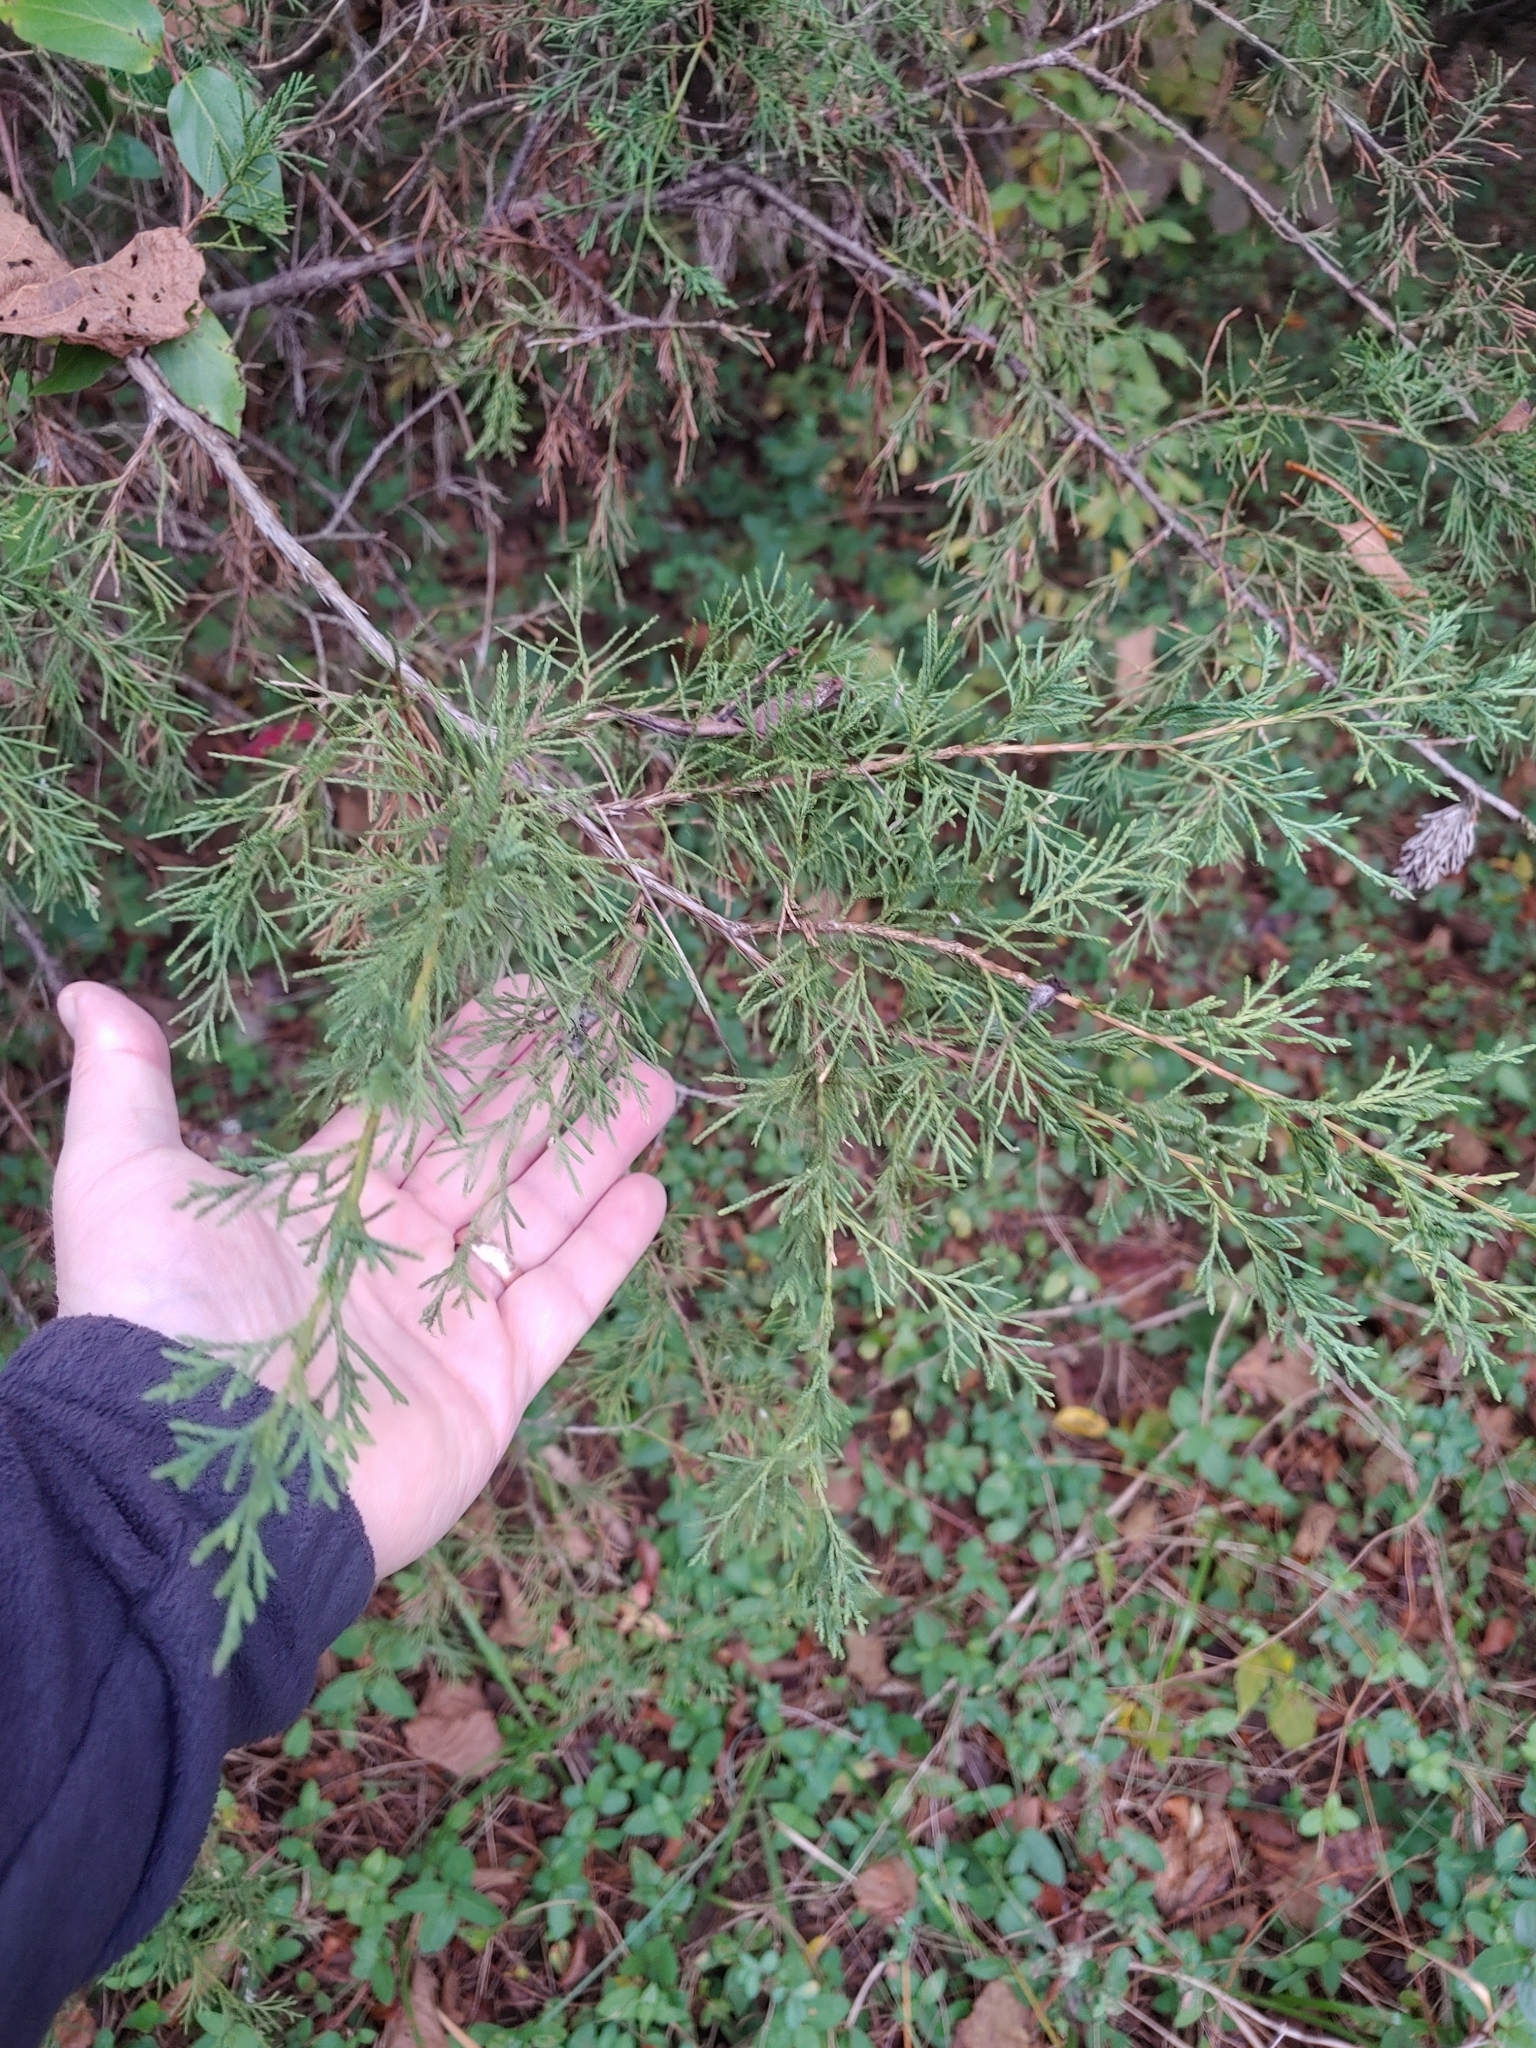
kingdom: Plantae
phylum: Tracheophyta
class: Pinopsida
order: Pinales
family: Cupressaceae
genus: Juniperus
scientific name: Juniperus virginiana
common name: Red juniper
